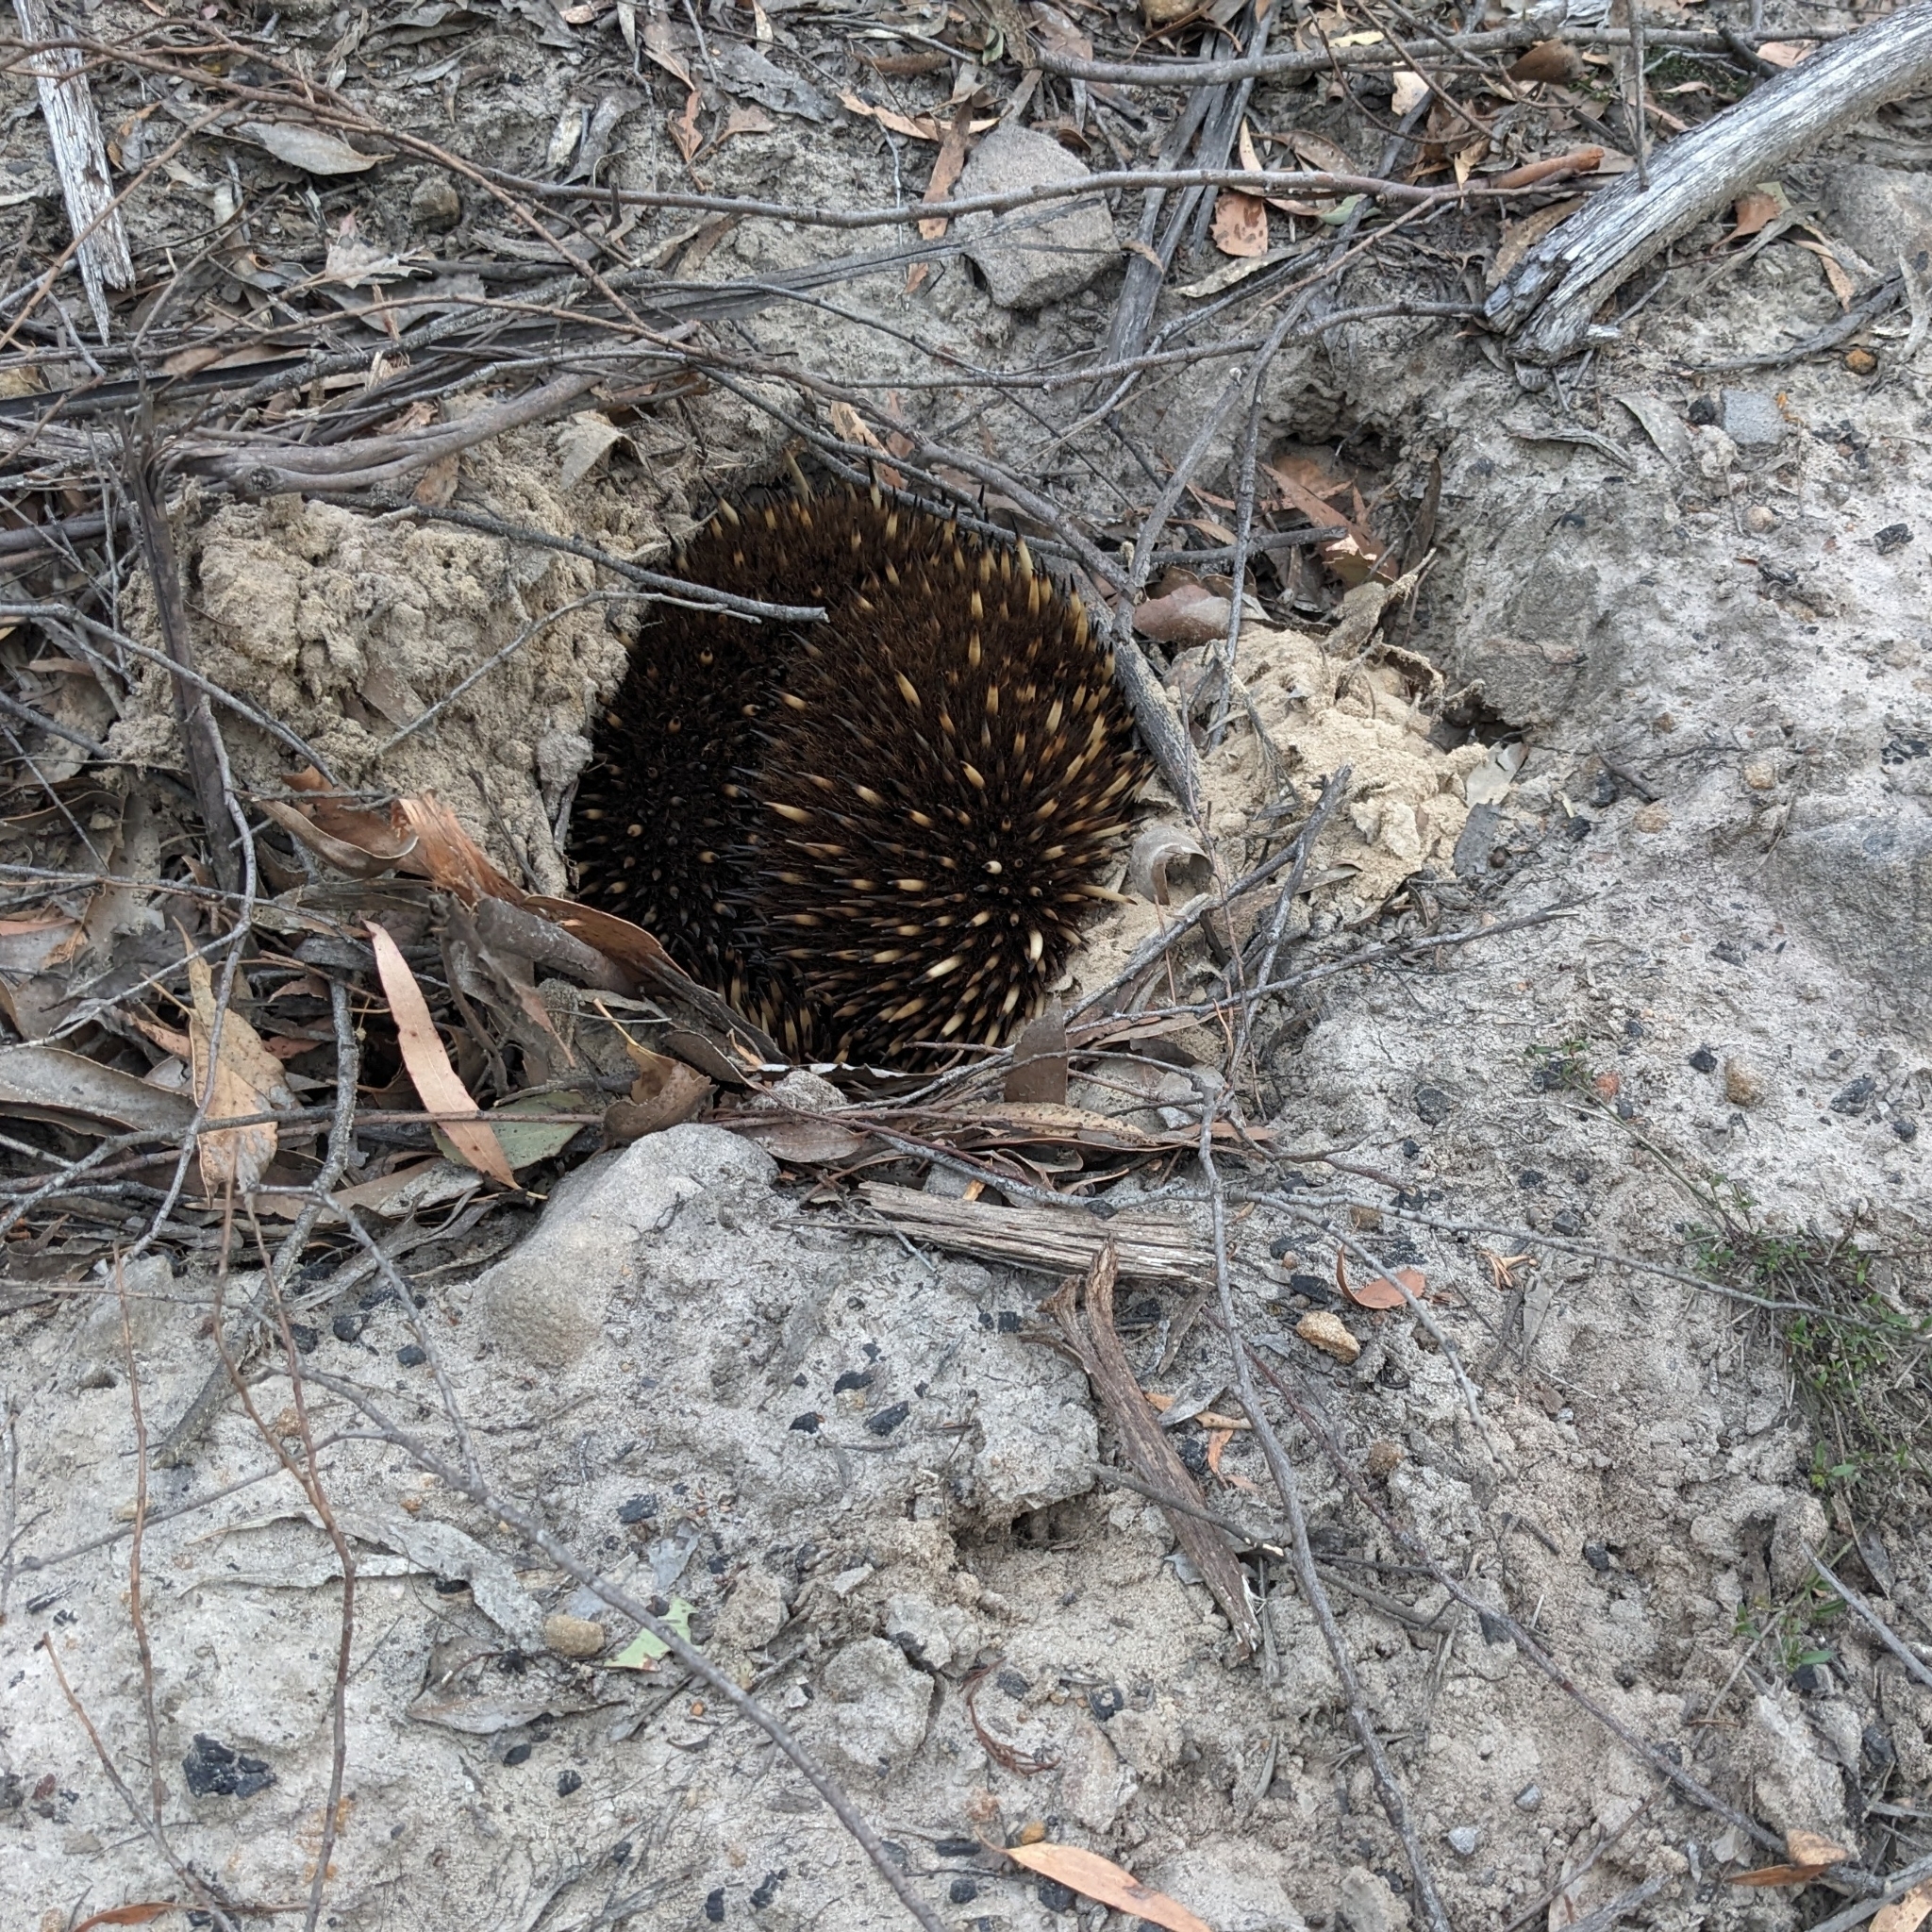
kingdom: Animalia
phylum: Chordata
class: Mammalia
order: Monotremata
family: Tachyglossidae
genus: Tachyglossus
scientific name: Tachyglossus aculeatus
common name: Short-beaked echidna
